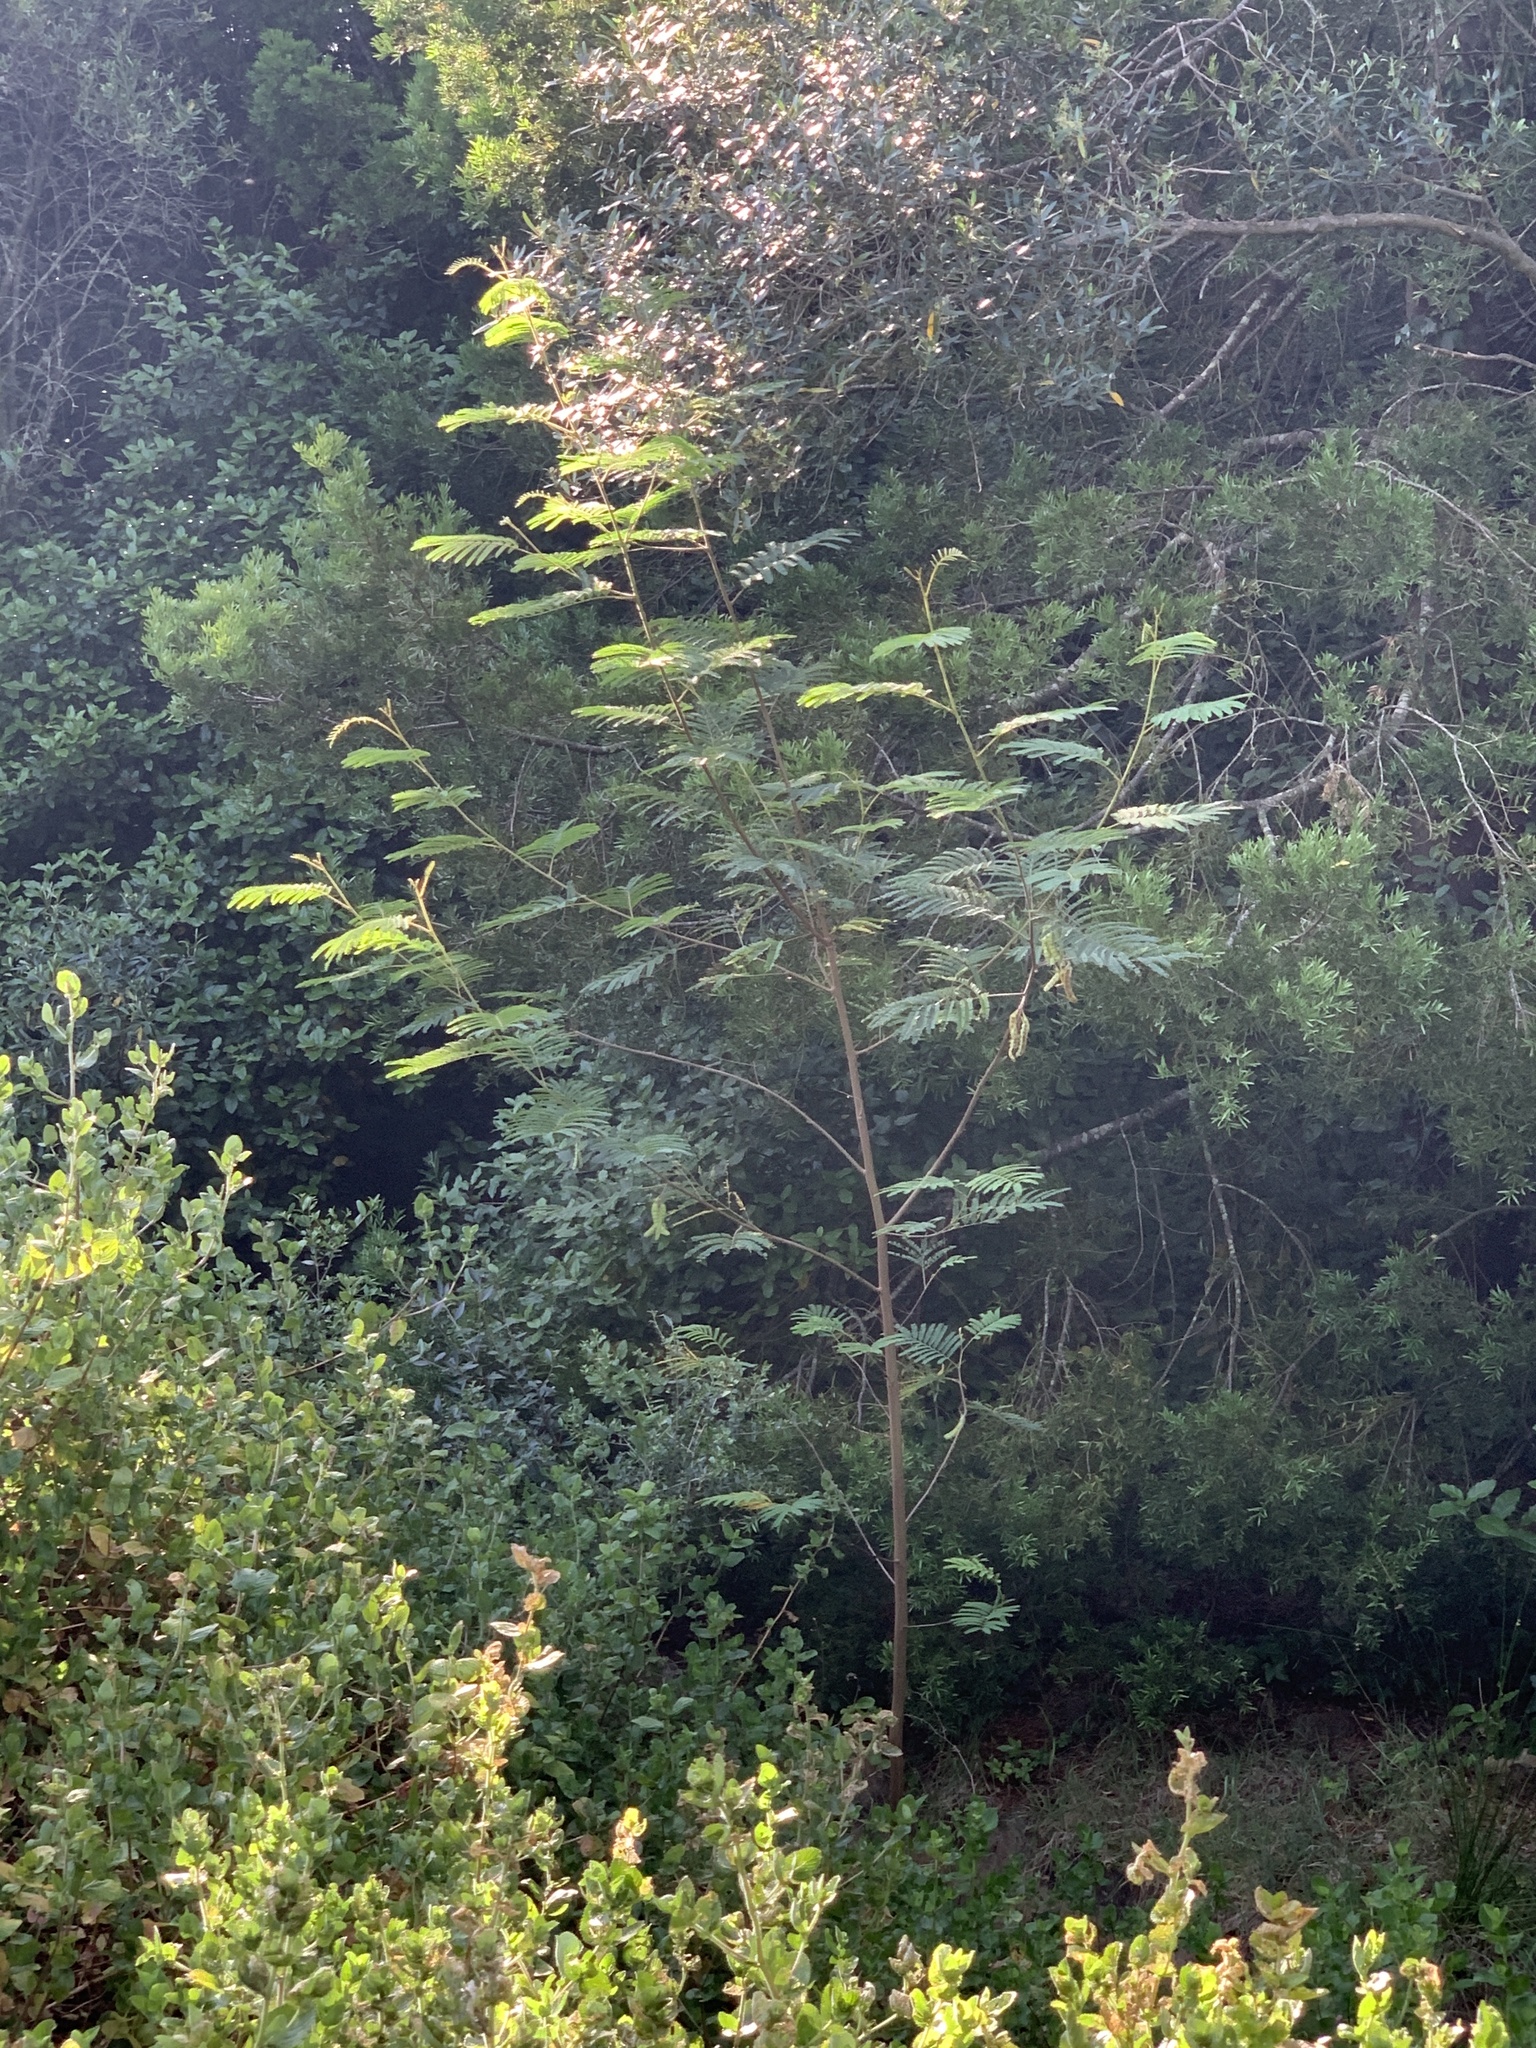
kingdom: Plantae
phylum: Tracheophyta
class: Magnoliopsida
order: Fabales
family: Fabaceae
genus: Paraserianthes
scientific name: Paraserianthes lophantha
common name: Plume albizia
